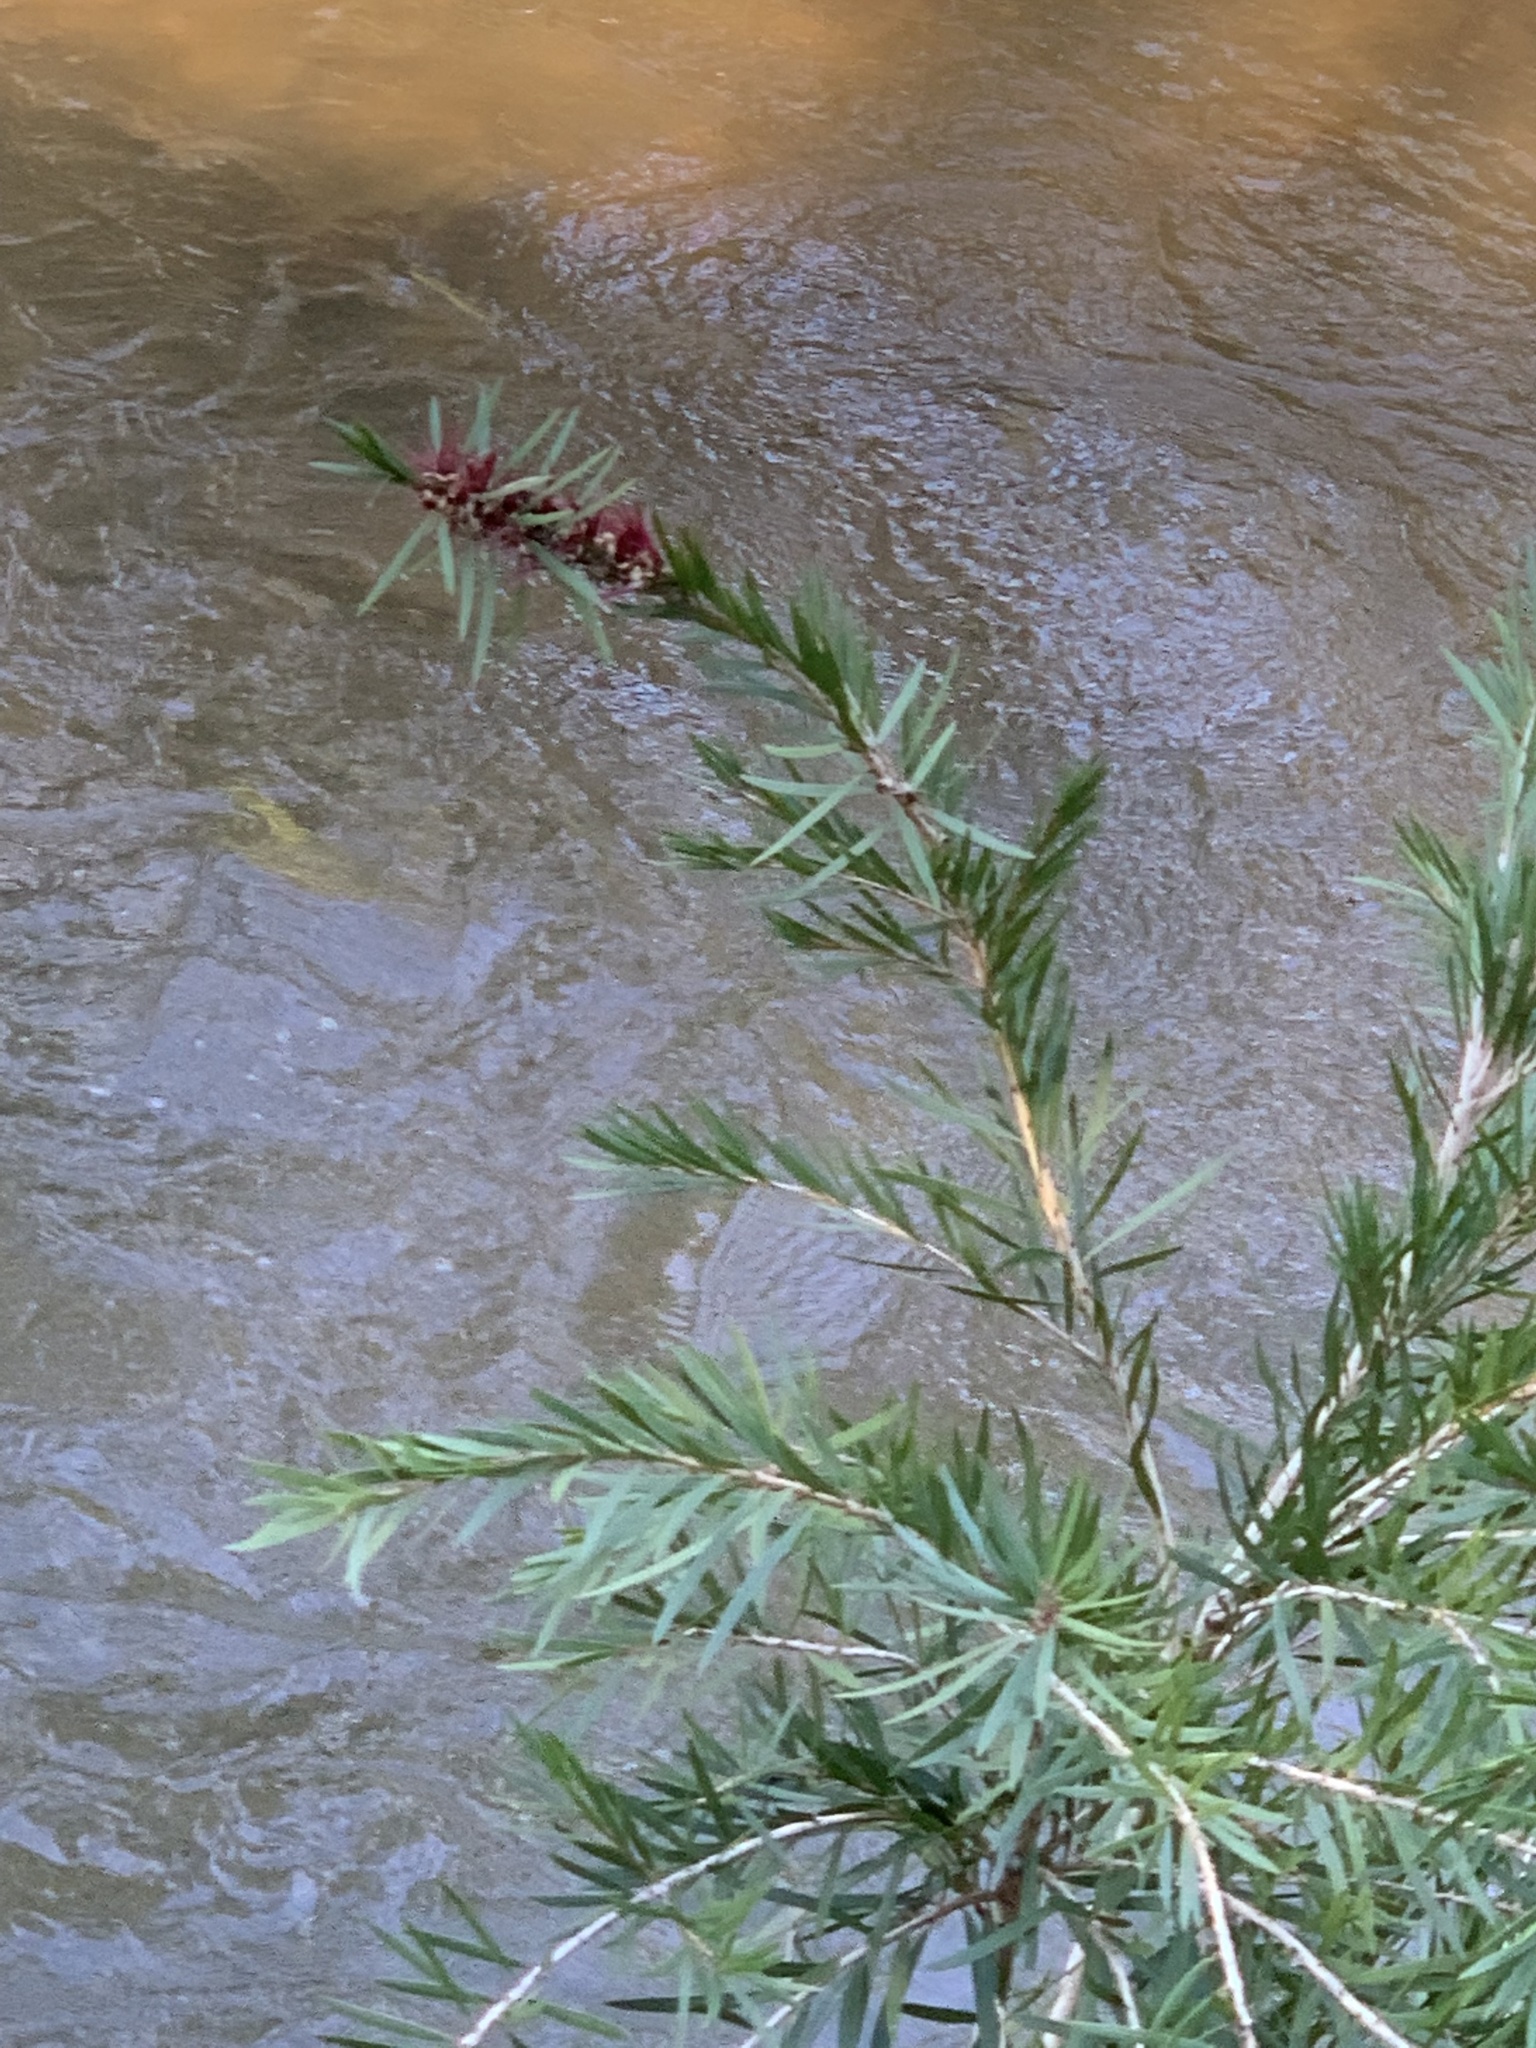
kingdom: Plantae
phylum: Tracheophyta
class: Magnoliopsida
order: Myrtales
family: Myrtaceae
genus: Callistemon
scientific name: Callistemon viminalis
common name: Drooping bottlebrush
